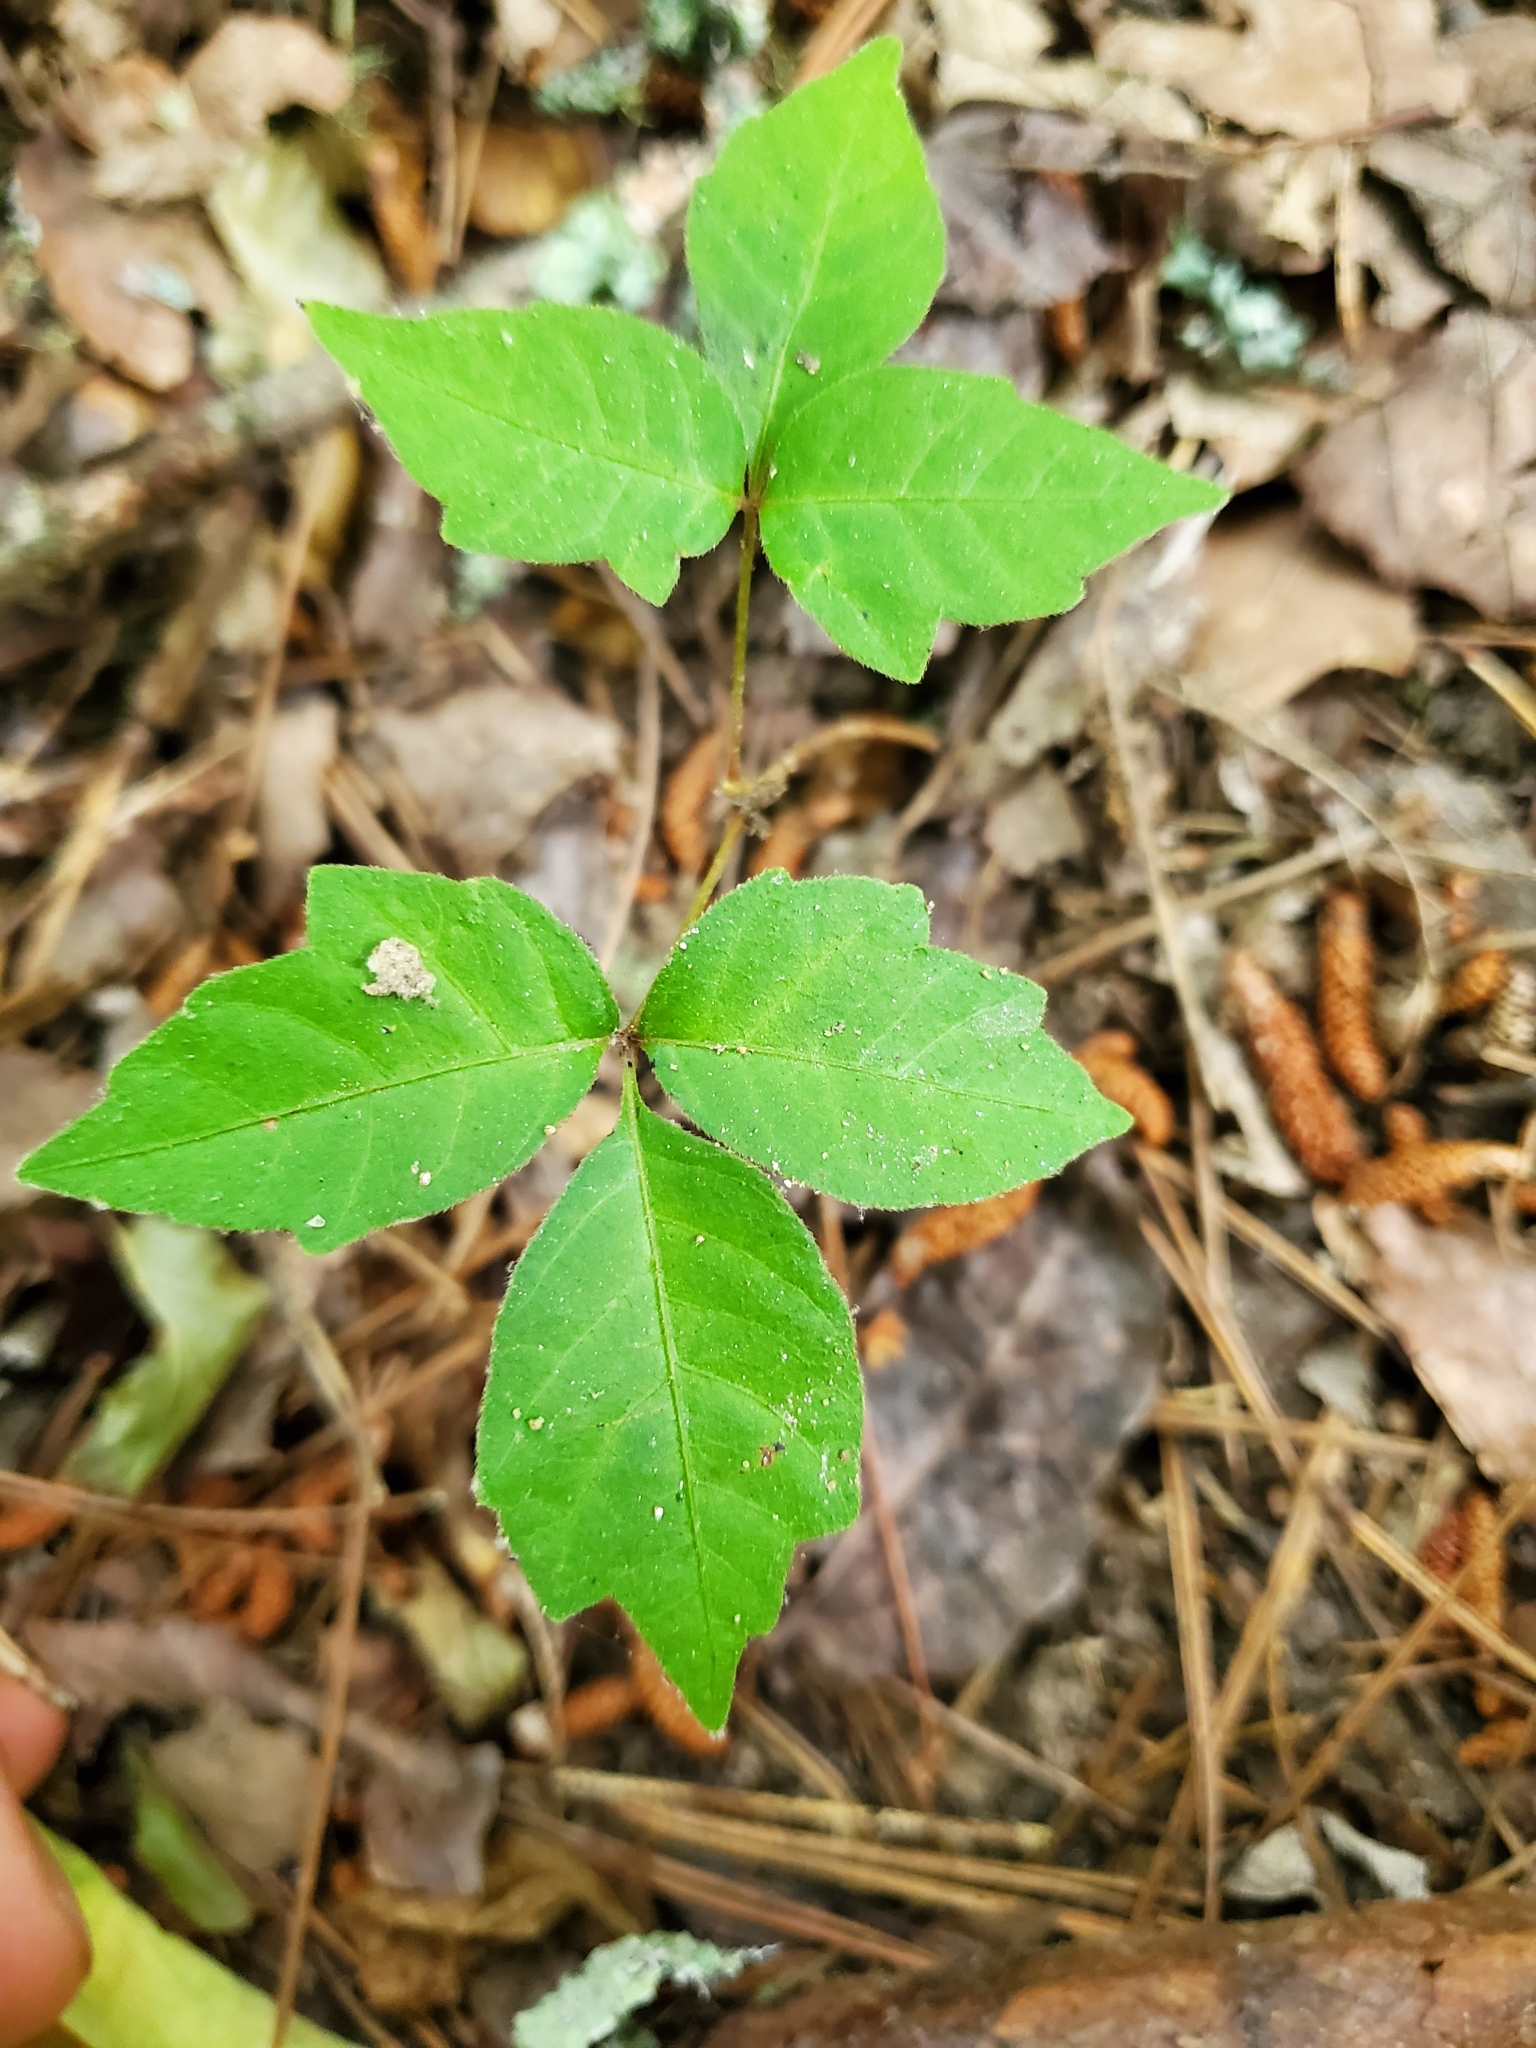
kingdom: Plantae
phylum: Tracheophyta
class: Magnoliopsida
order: Sapindales
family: Anacardiaceae
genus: Toxicodendron
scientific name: Toxicodendron radicans
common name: Poison ivy
